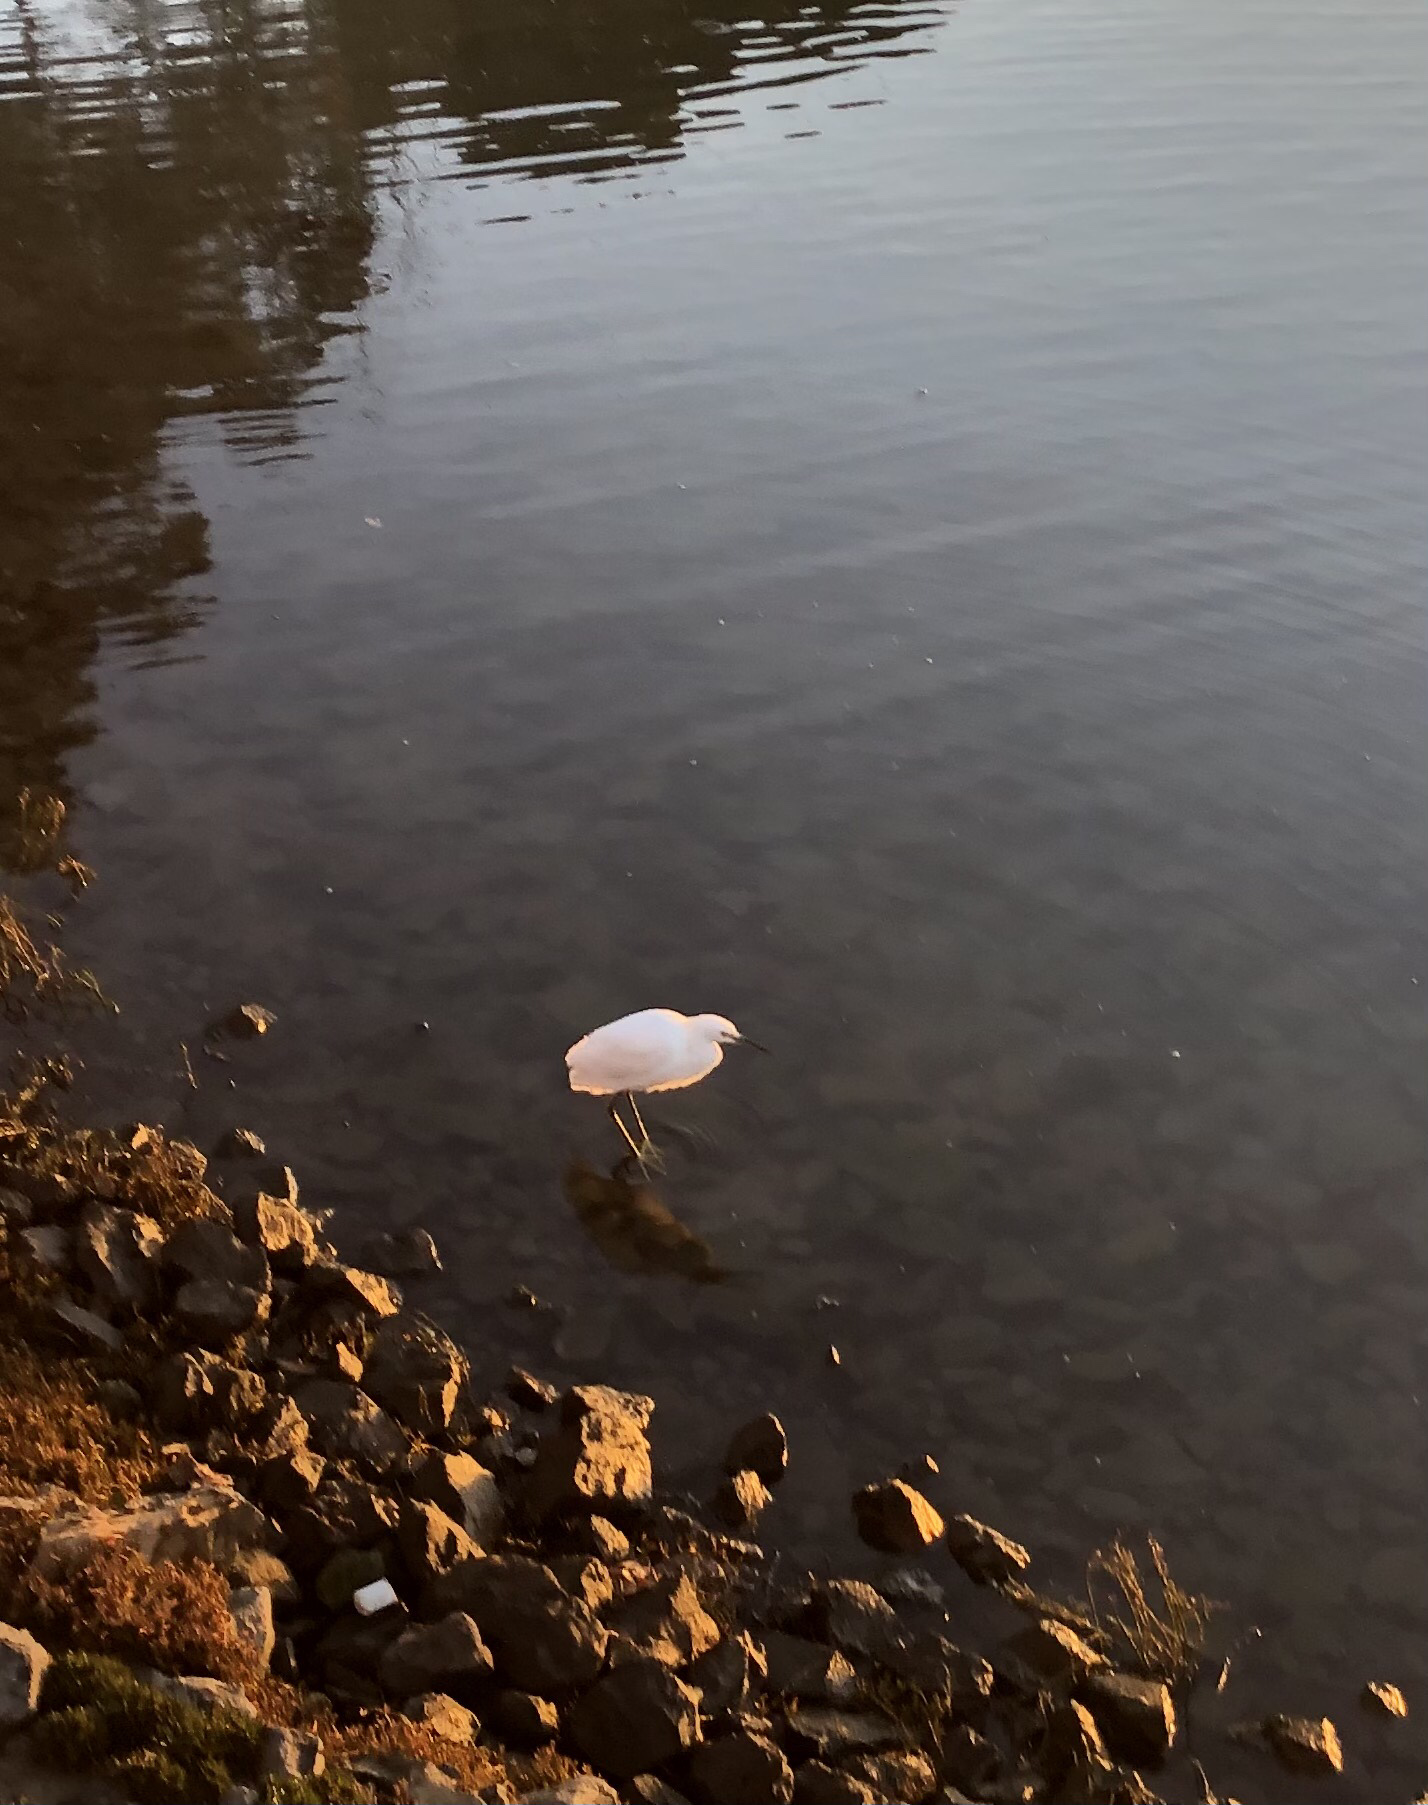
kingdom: Animalia
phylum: Chordata
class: Aves
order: Pelecaniformes
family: Ardeidae
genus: Egretta
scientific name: Egretta thula
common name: Snowy egret
